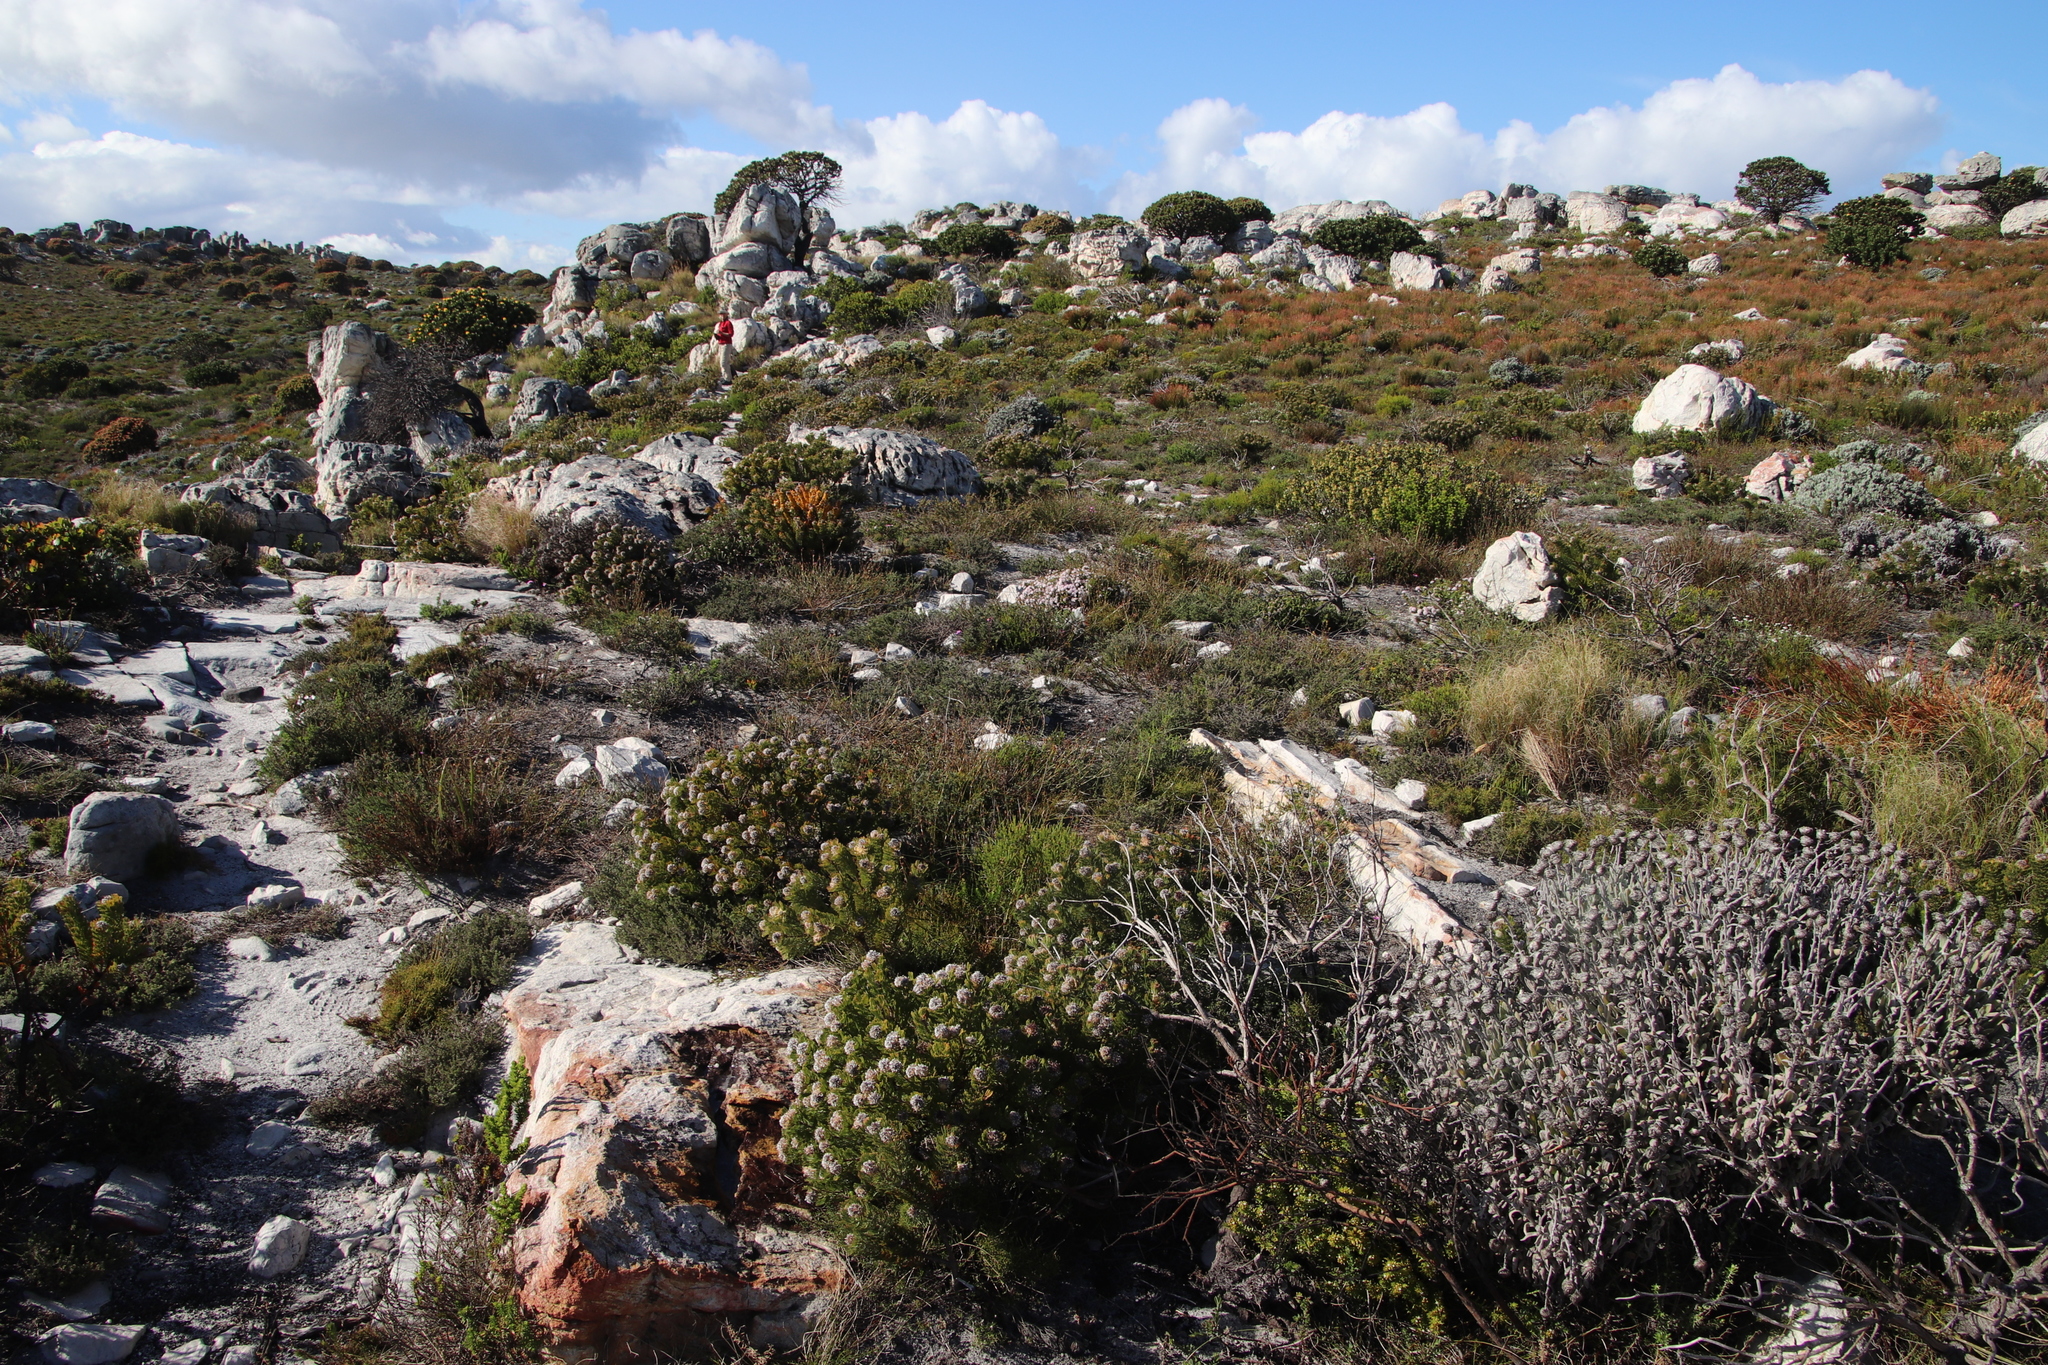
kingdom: Plantae
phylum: Tracheophyta
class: Magnoliopsida
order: Proteales
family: Proteaceae
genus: Serruria
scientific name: Serruria villosa
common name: Golden spiderhead
